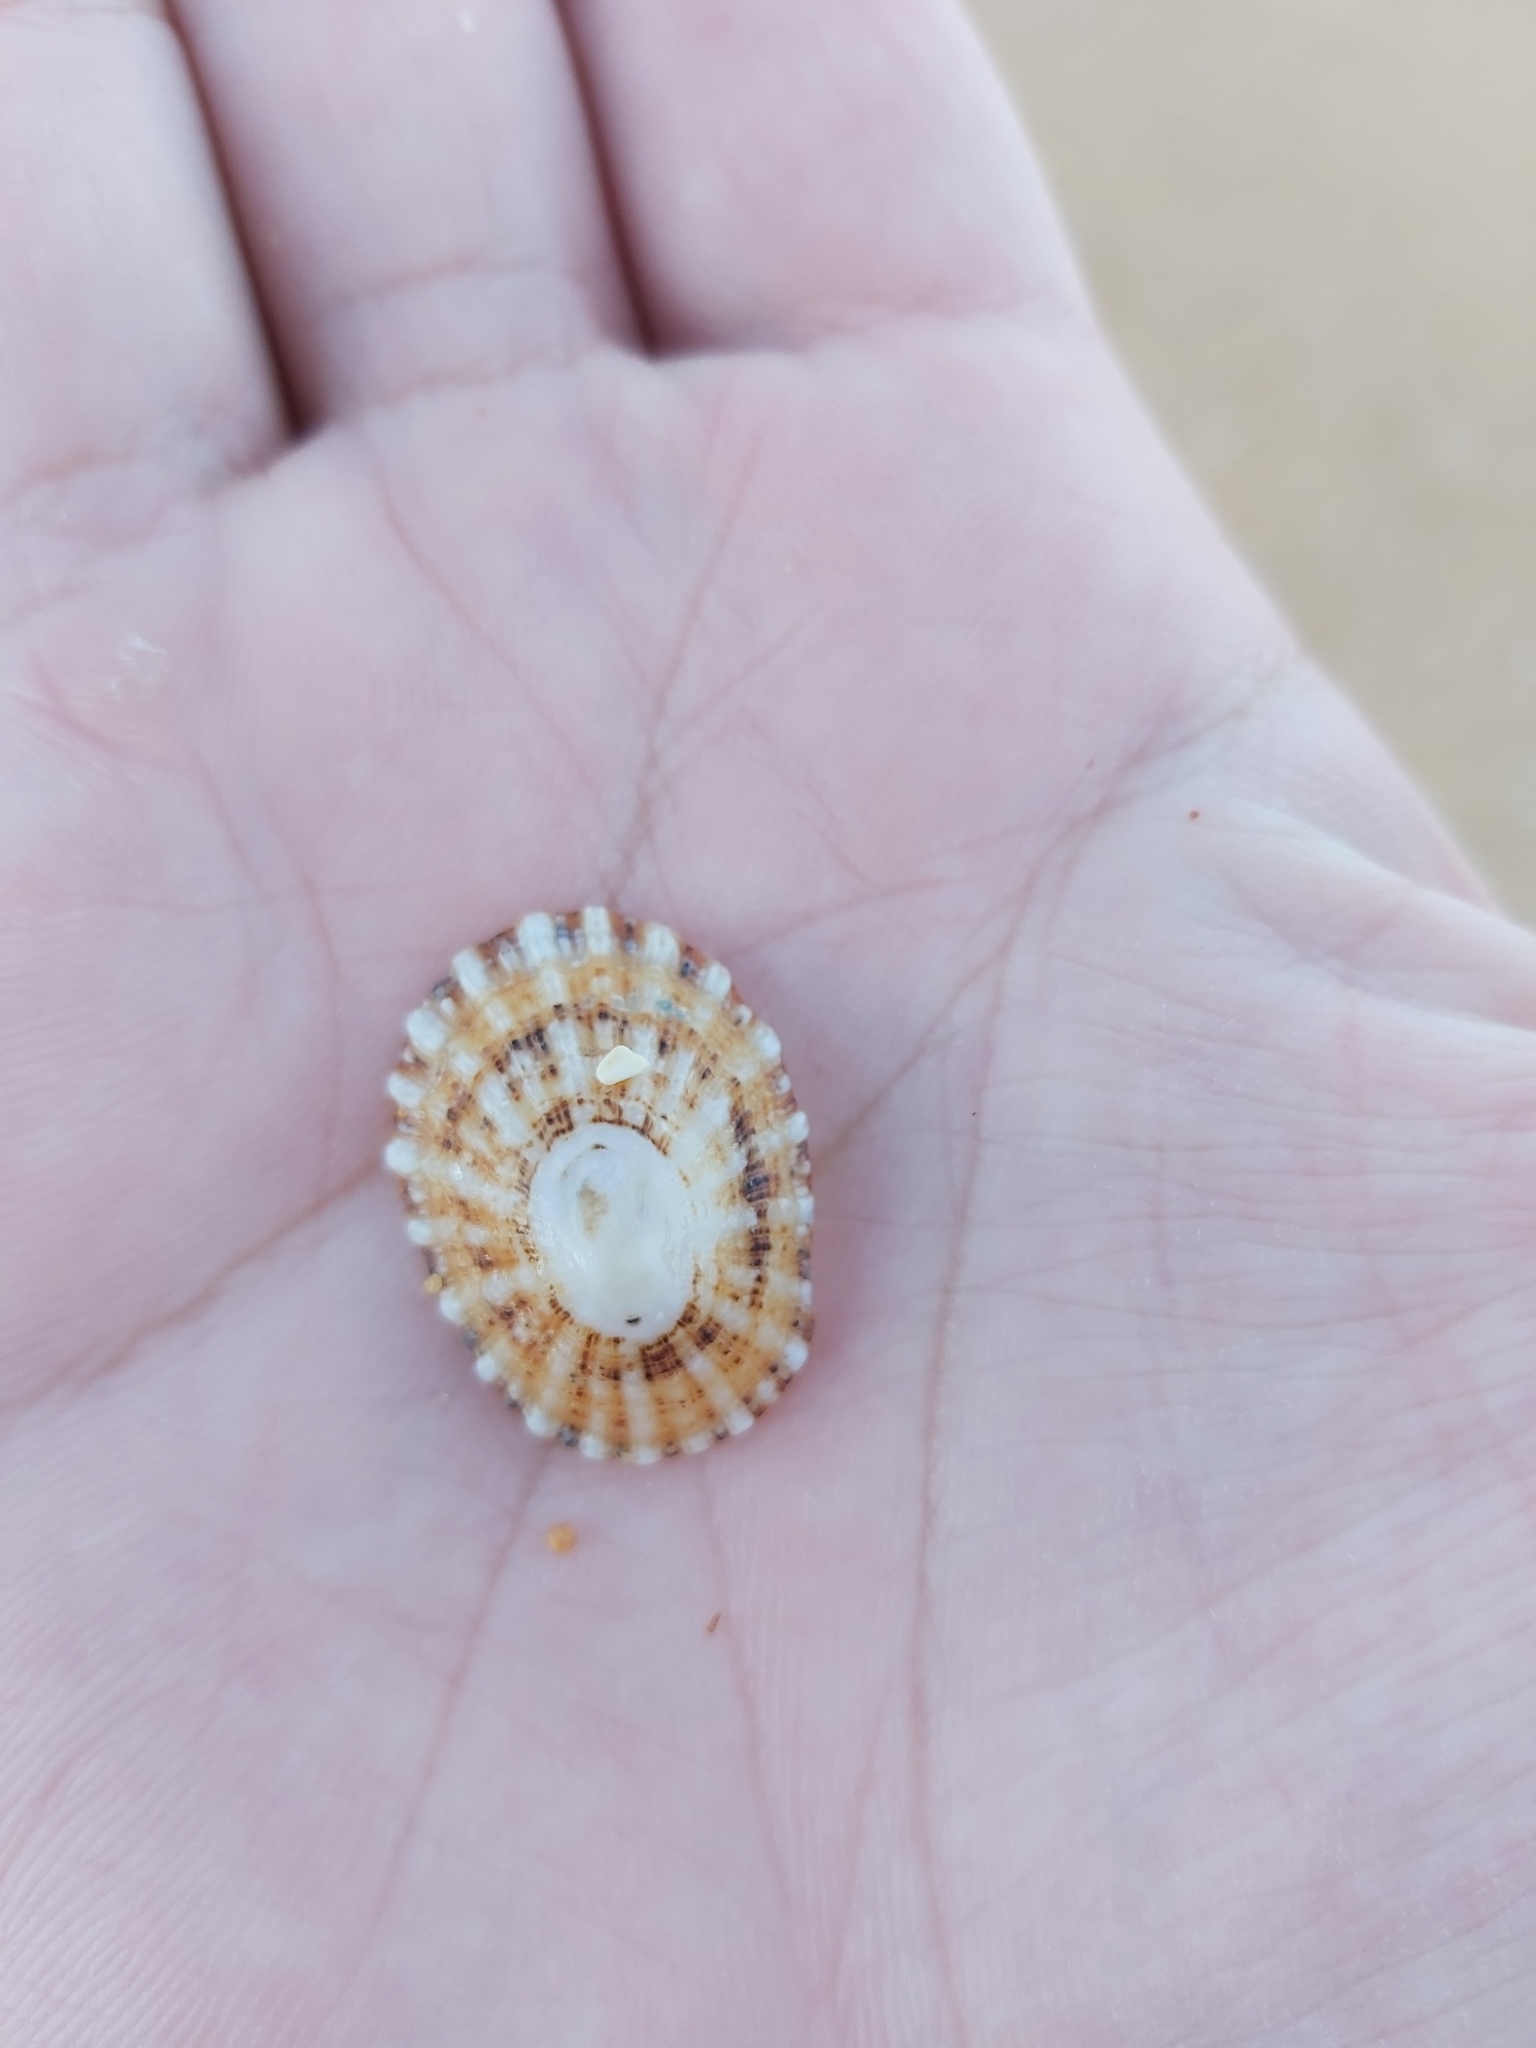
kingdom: Animalia
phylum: Mollusca
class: Gastropoda
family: Patellidae
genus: Scutellastra
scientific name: Scutellastra peronii
